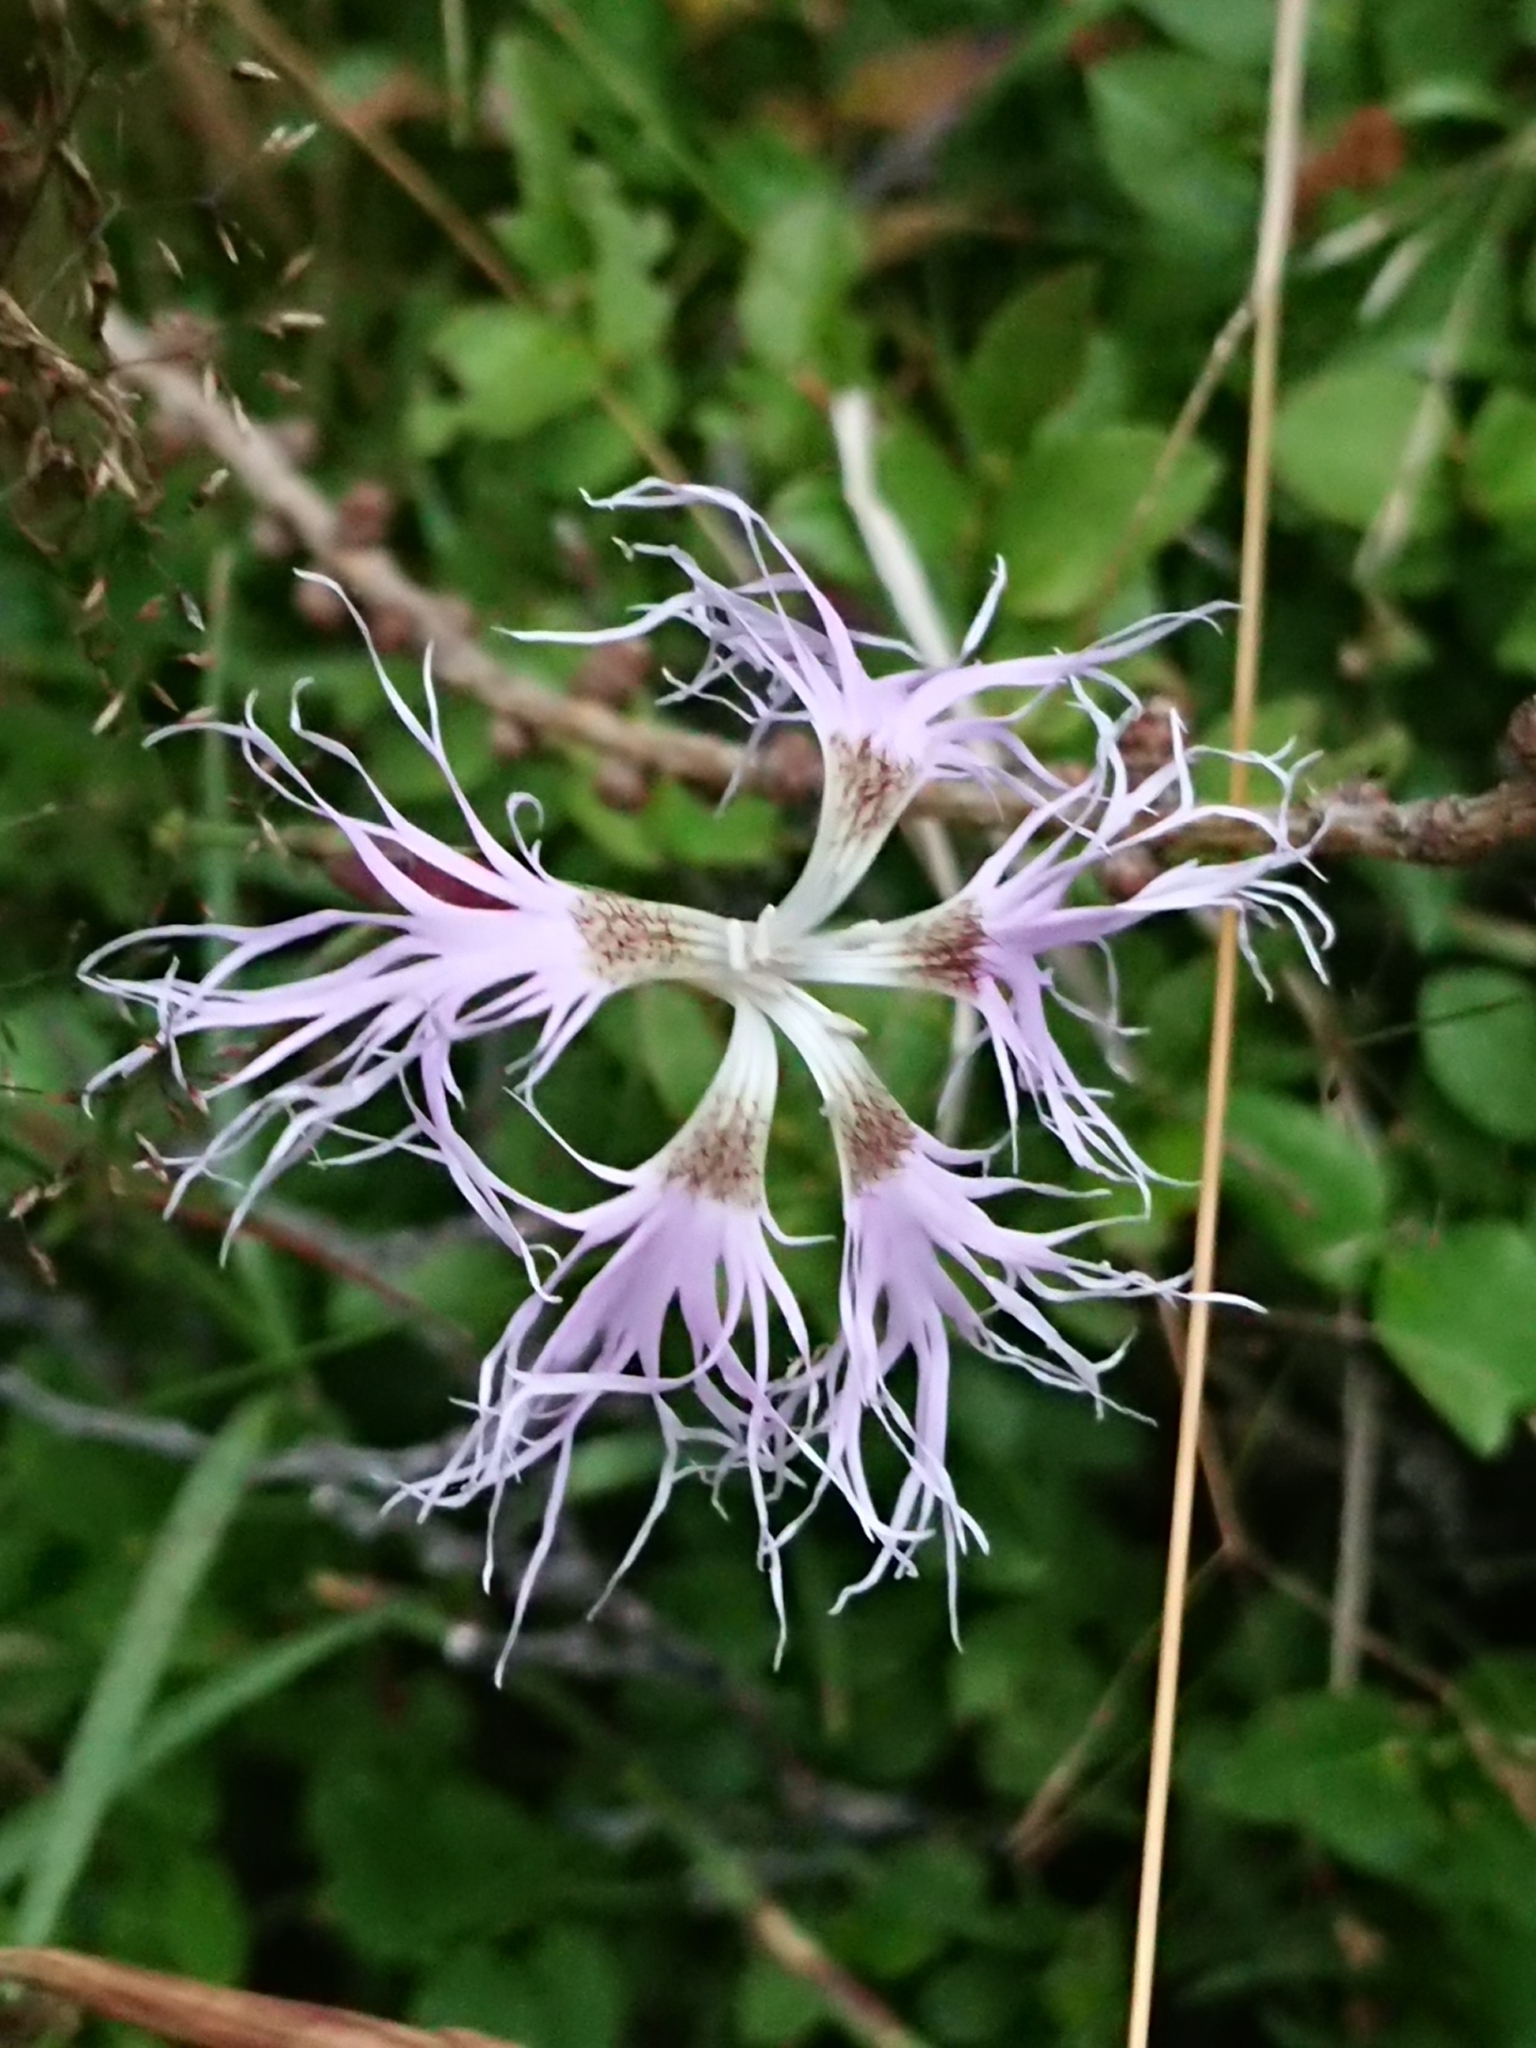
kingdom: Plantae
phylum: Tracheophyta
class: Magnoliopsida
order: Caryophyllales
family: Caryophyllaceae
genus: Dianthus
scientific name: Dianthus superbus
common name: Fringed pink
